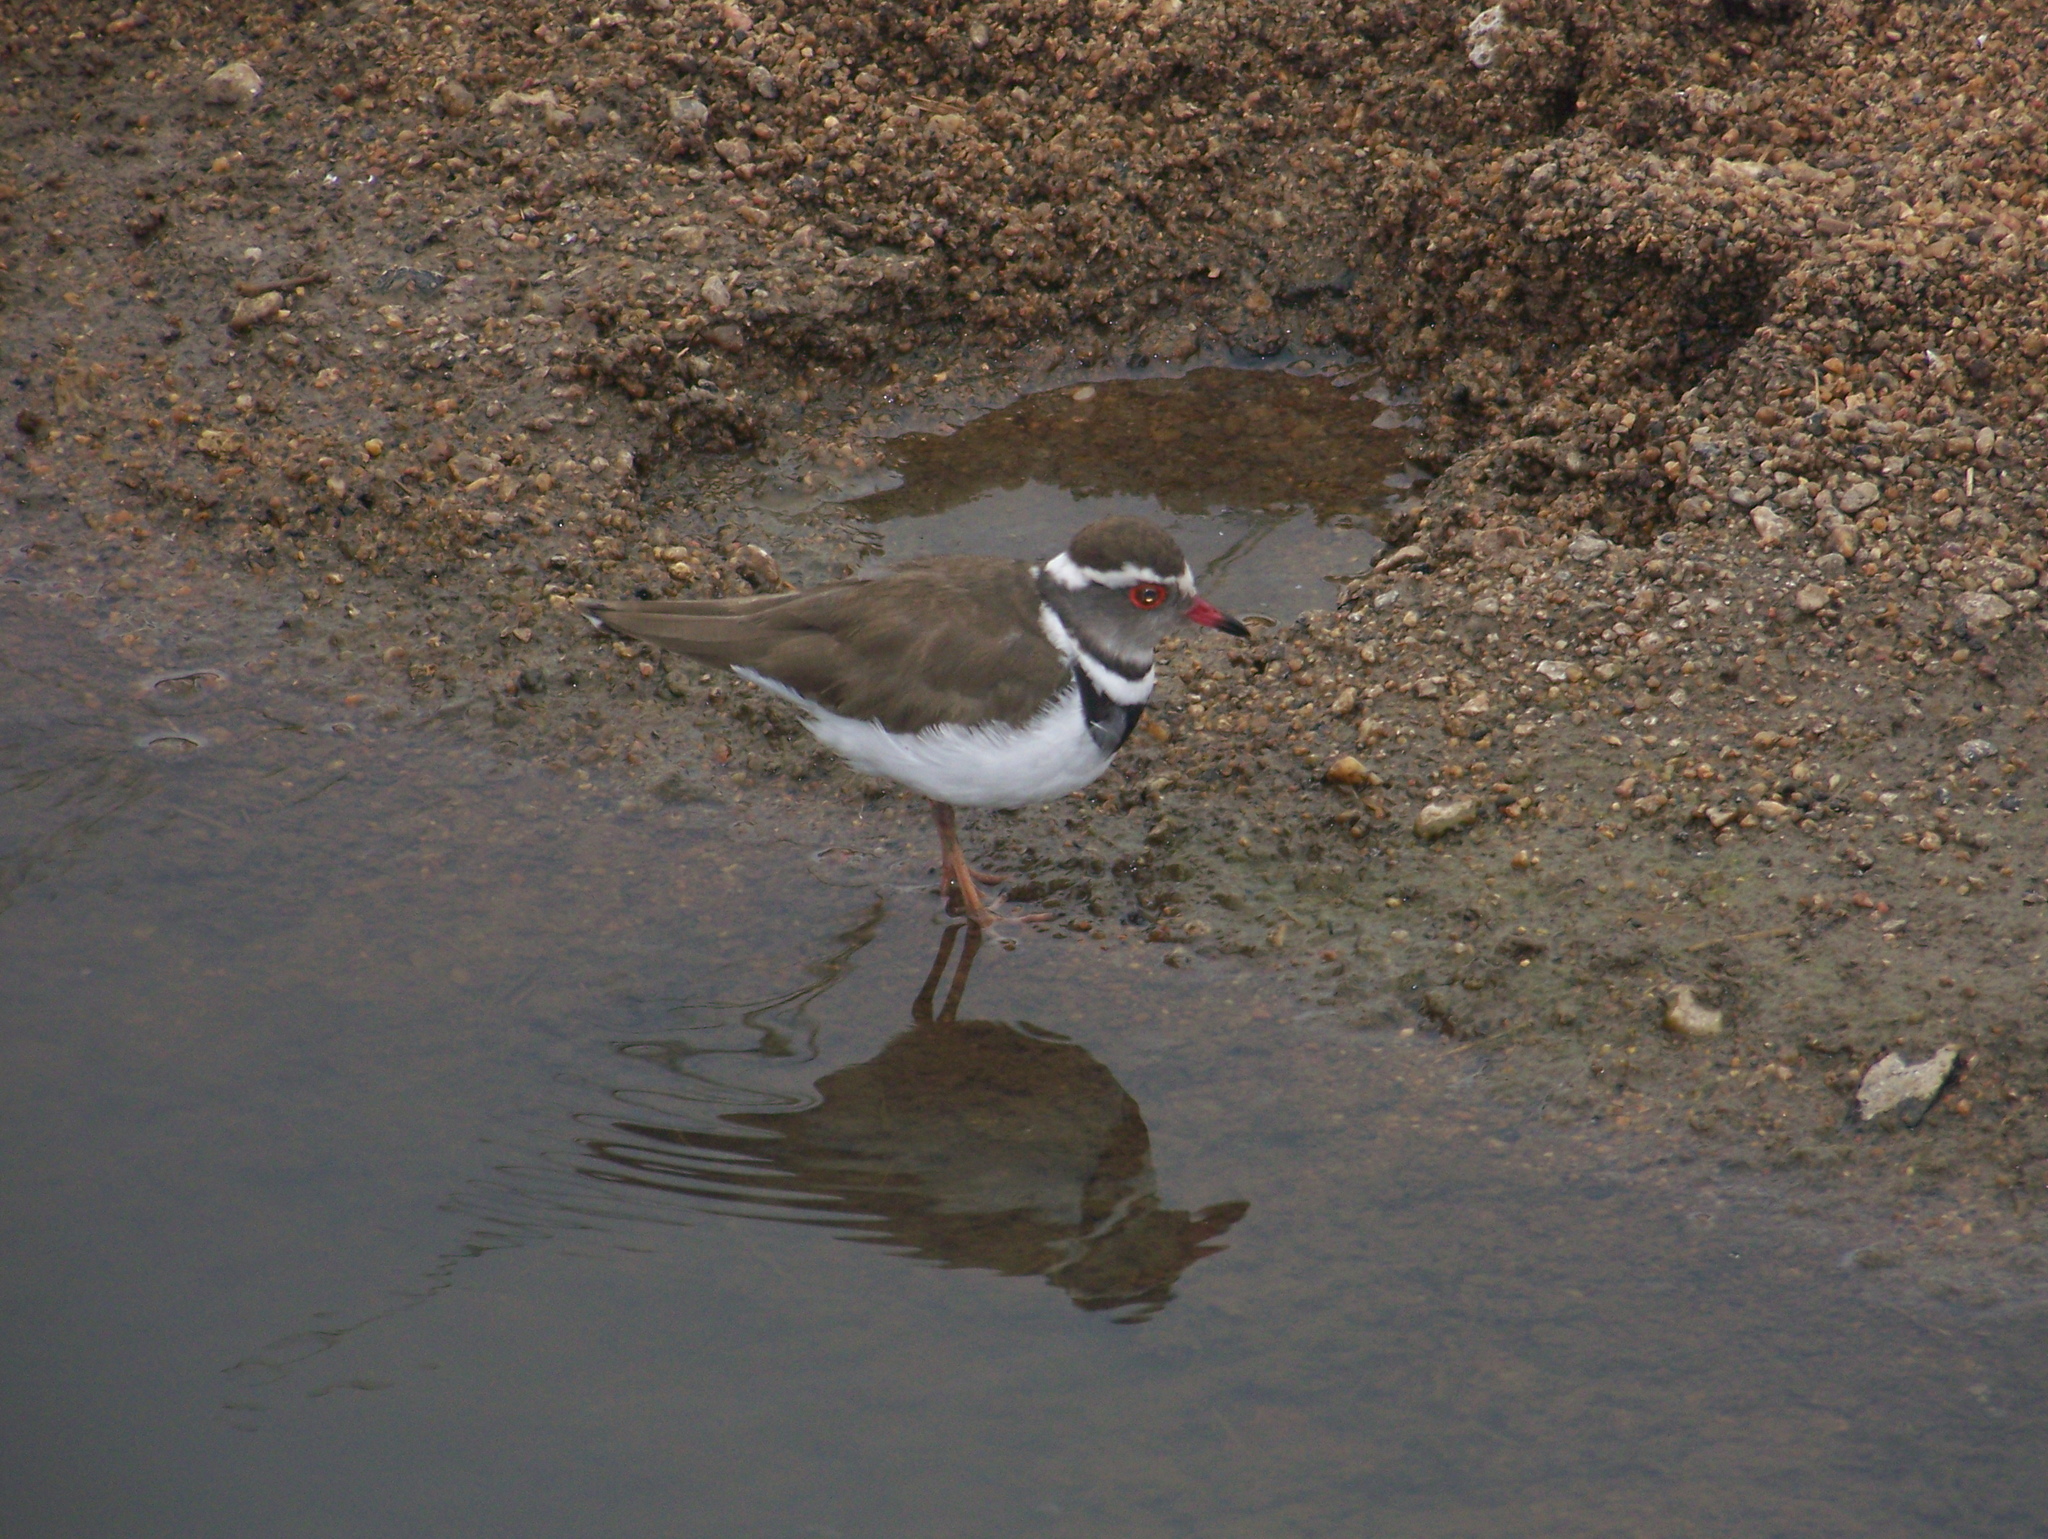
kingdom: Animalia
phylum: Chordata
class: Aves
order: Charadriiformes
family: Charadriidae
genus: Charadrius
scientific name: Charadrius tricollaris
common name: Three-banded plover
